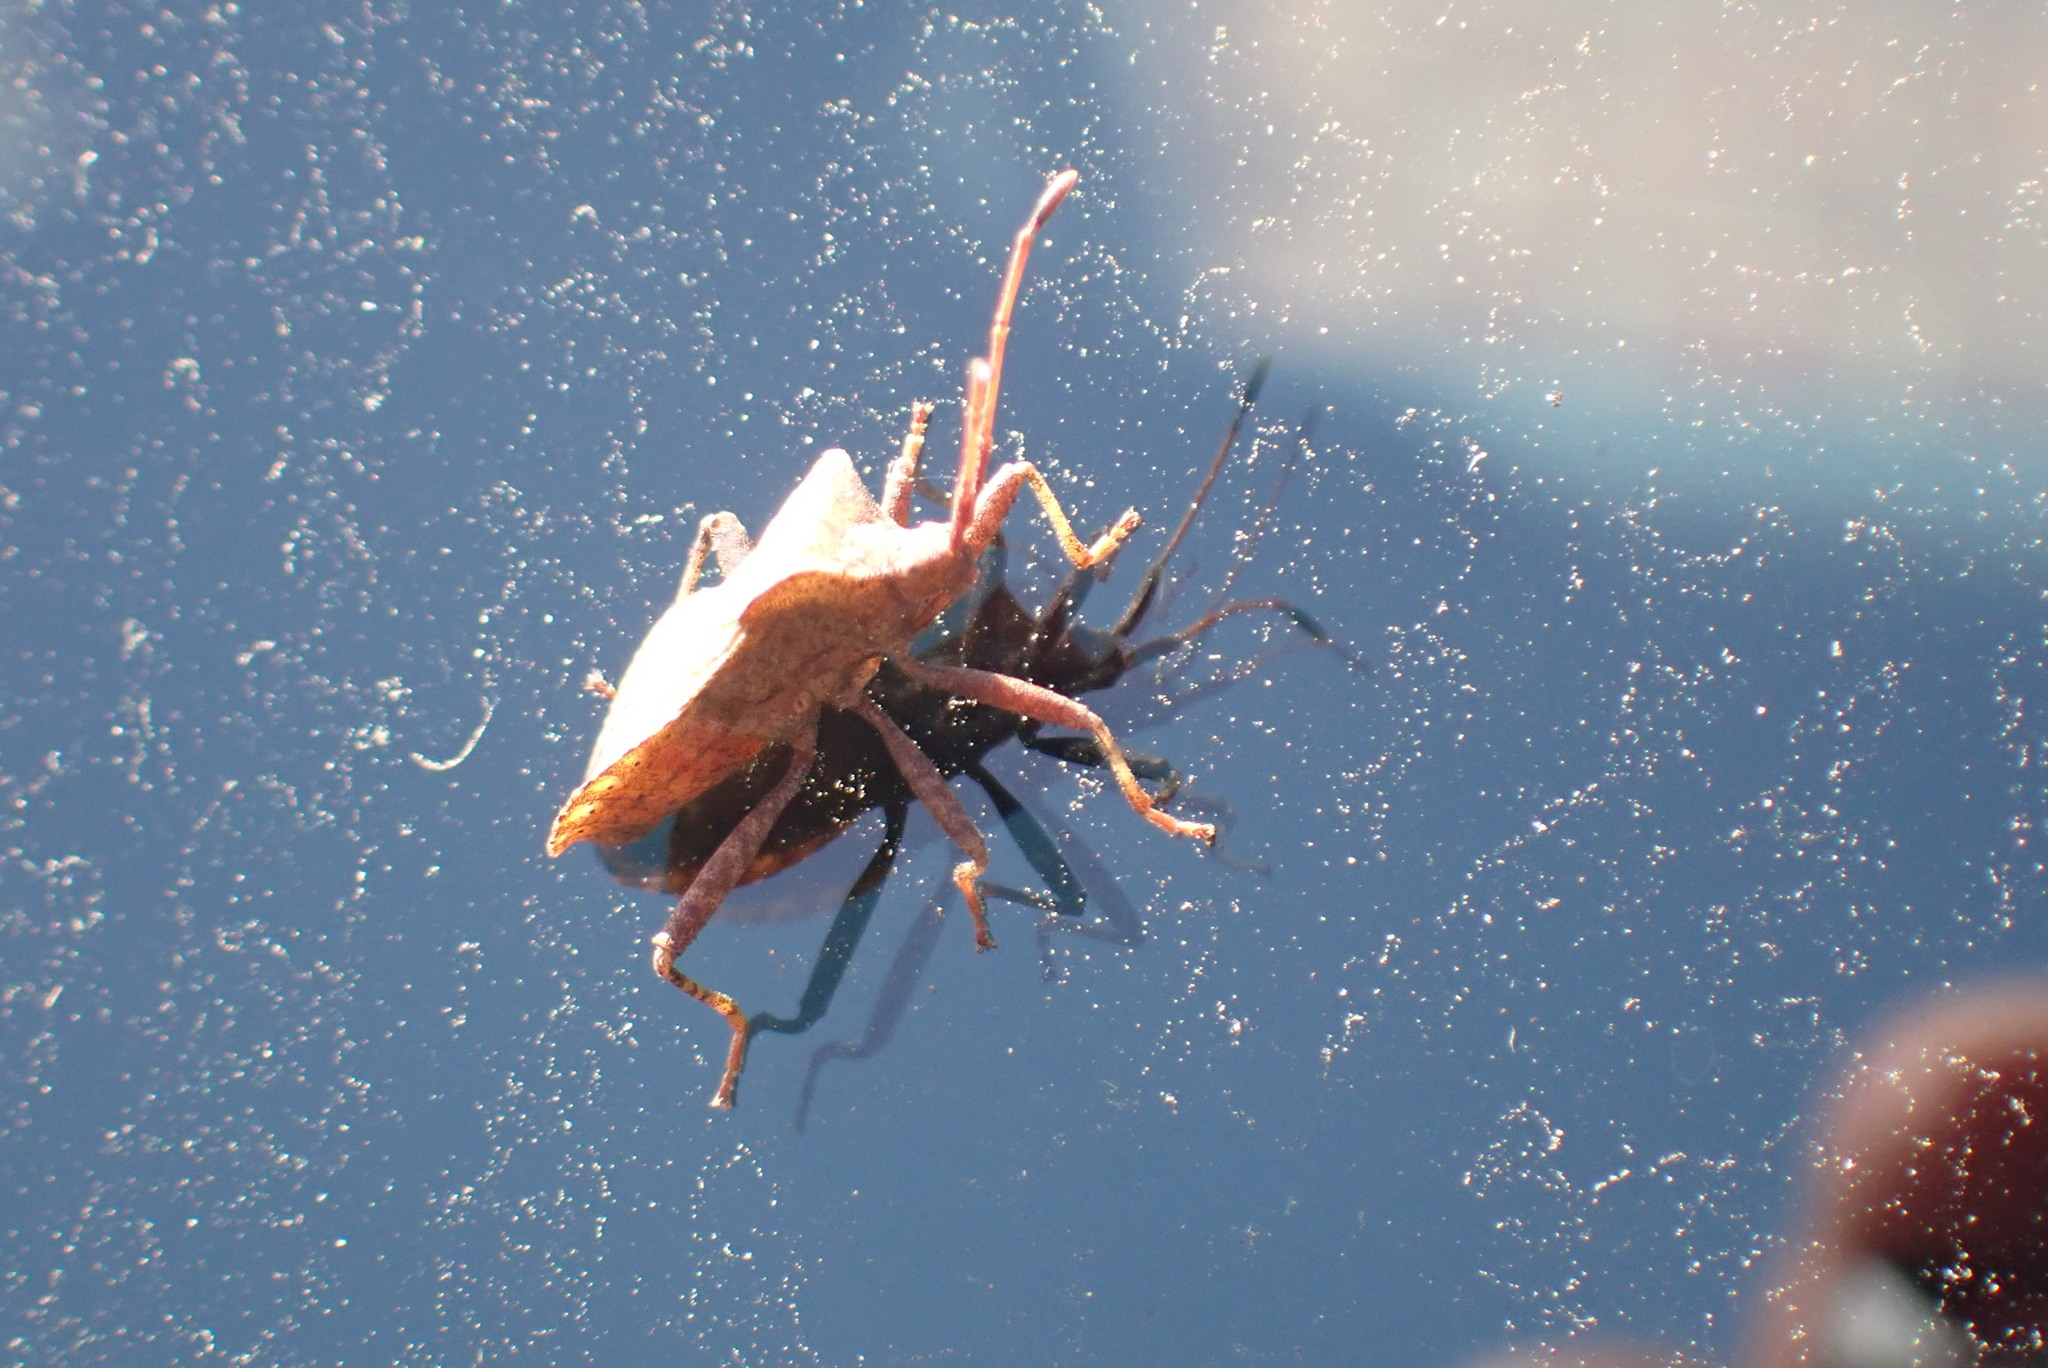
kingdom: Animalia
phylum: Arthropoda
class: Insecta
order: Hemiptera
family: Coreidae
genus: Coreus
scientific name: Coreus marginatus
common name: Dock bug
